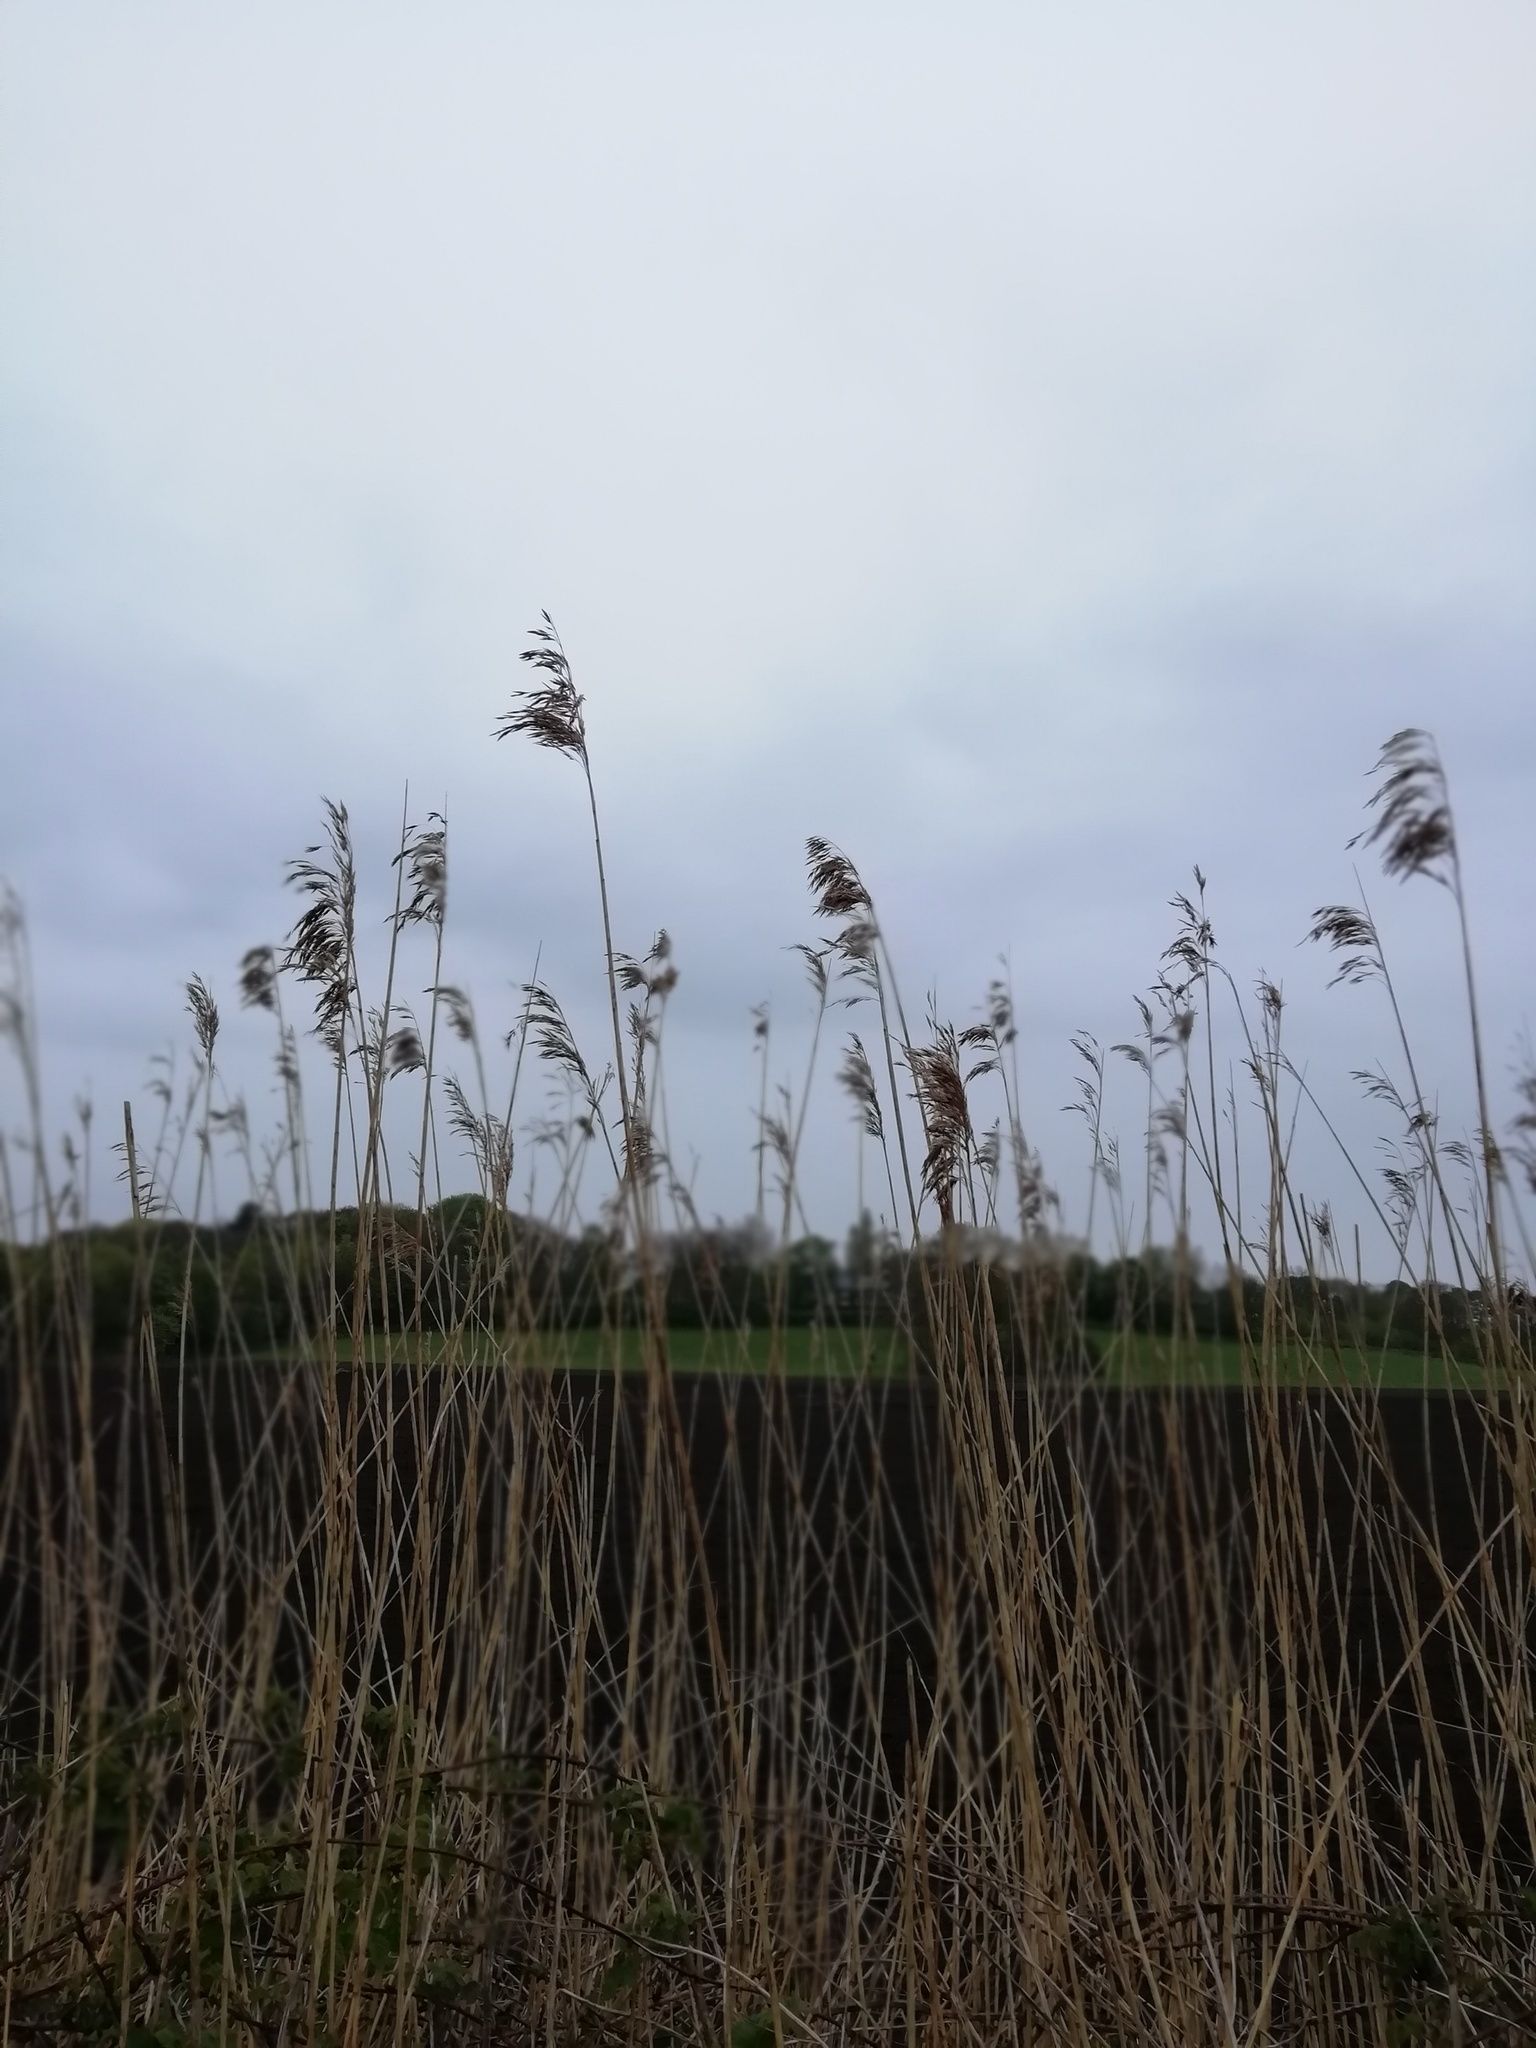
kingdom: Plantae
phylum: Tracheophyta
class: Liliopsida
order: Poales
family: Poaceae
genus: Phragmites
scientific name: Phragmites australis
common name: Common reed
